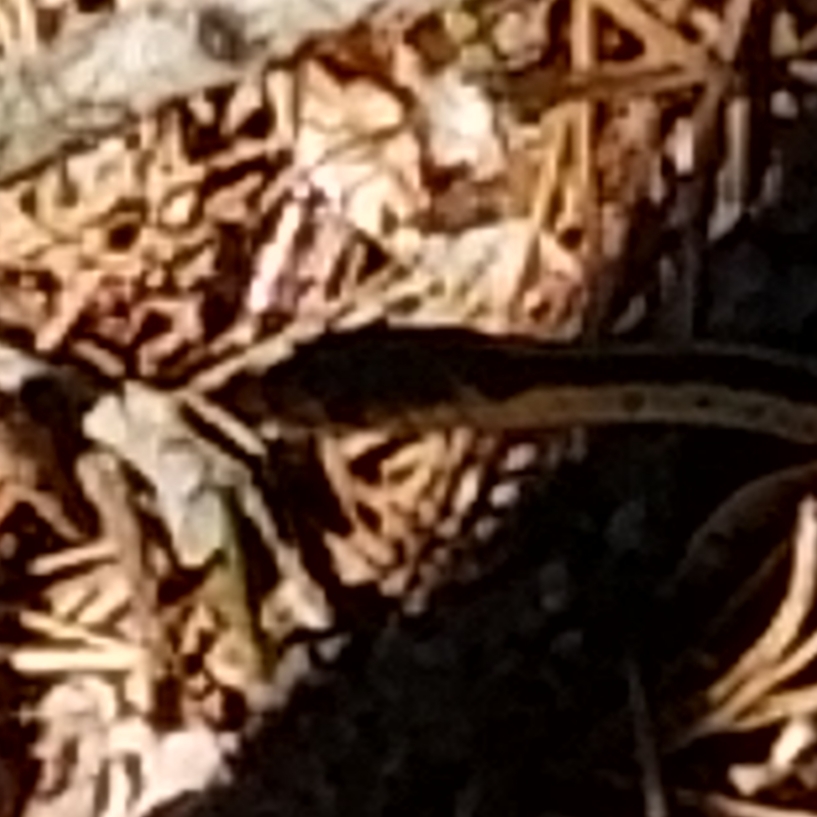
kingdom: Animalia
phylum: Chordata
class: Squamata
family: Colubridae
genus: Thamnophis
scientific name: Thamnophis sirtalis
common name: Common garter snake
